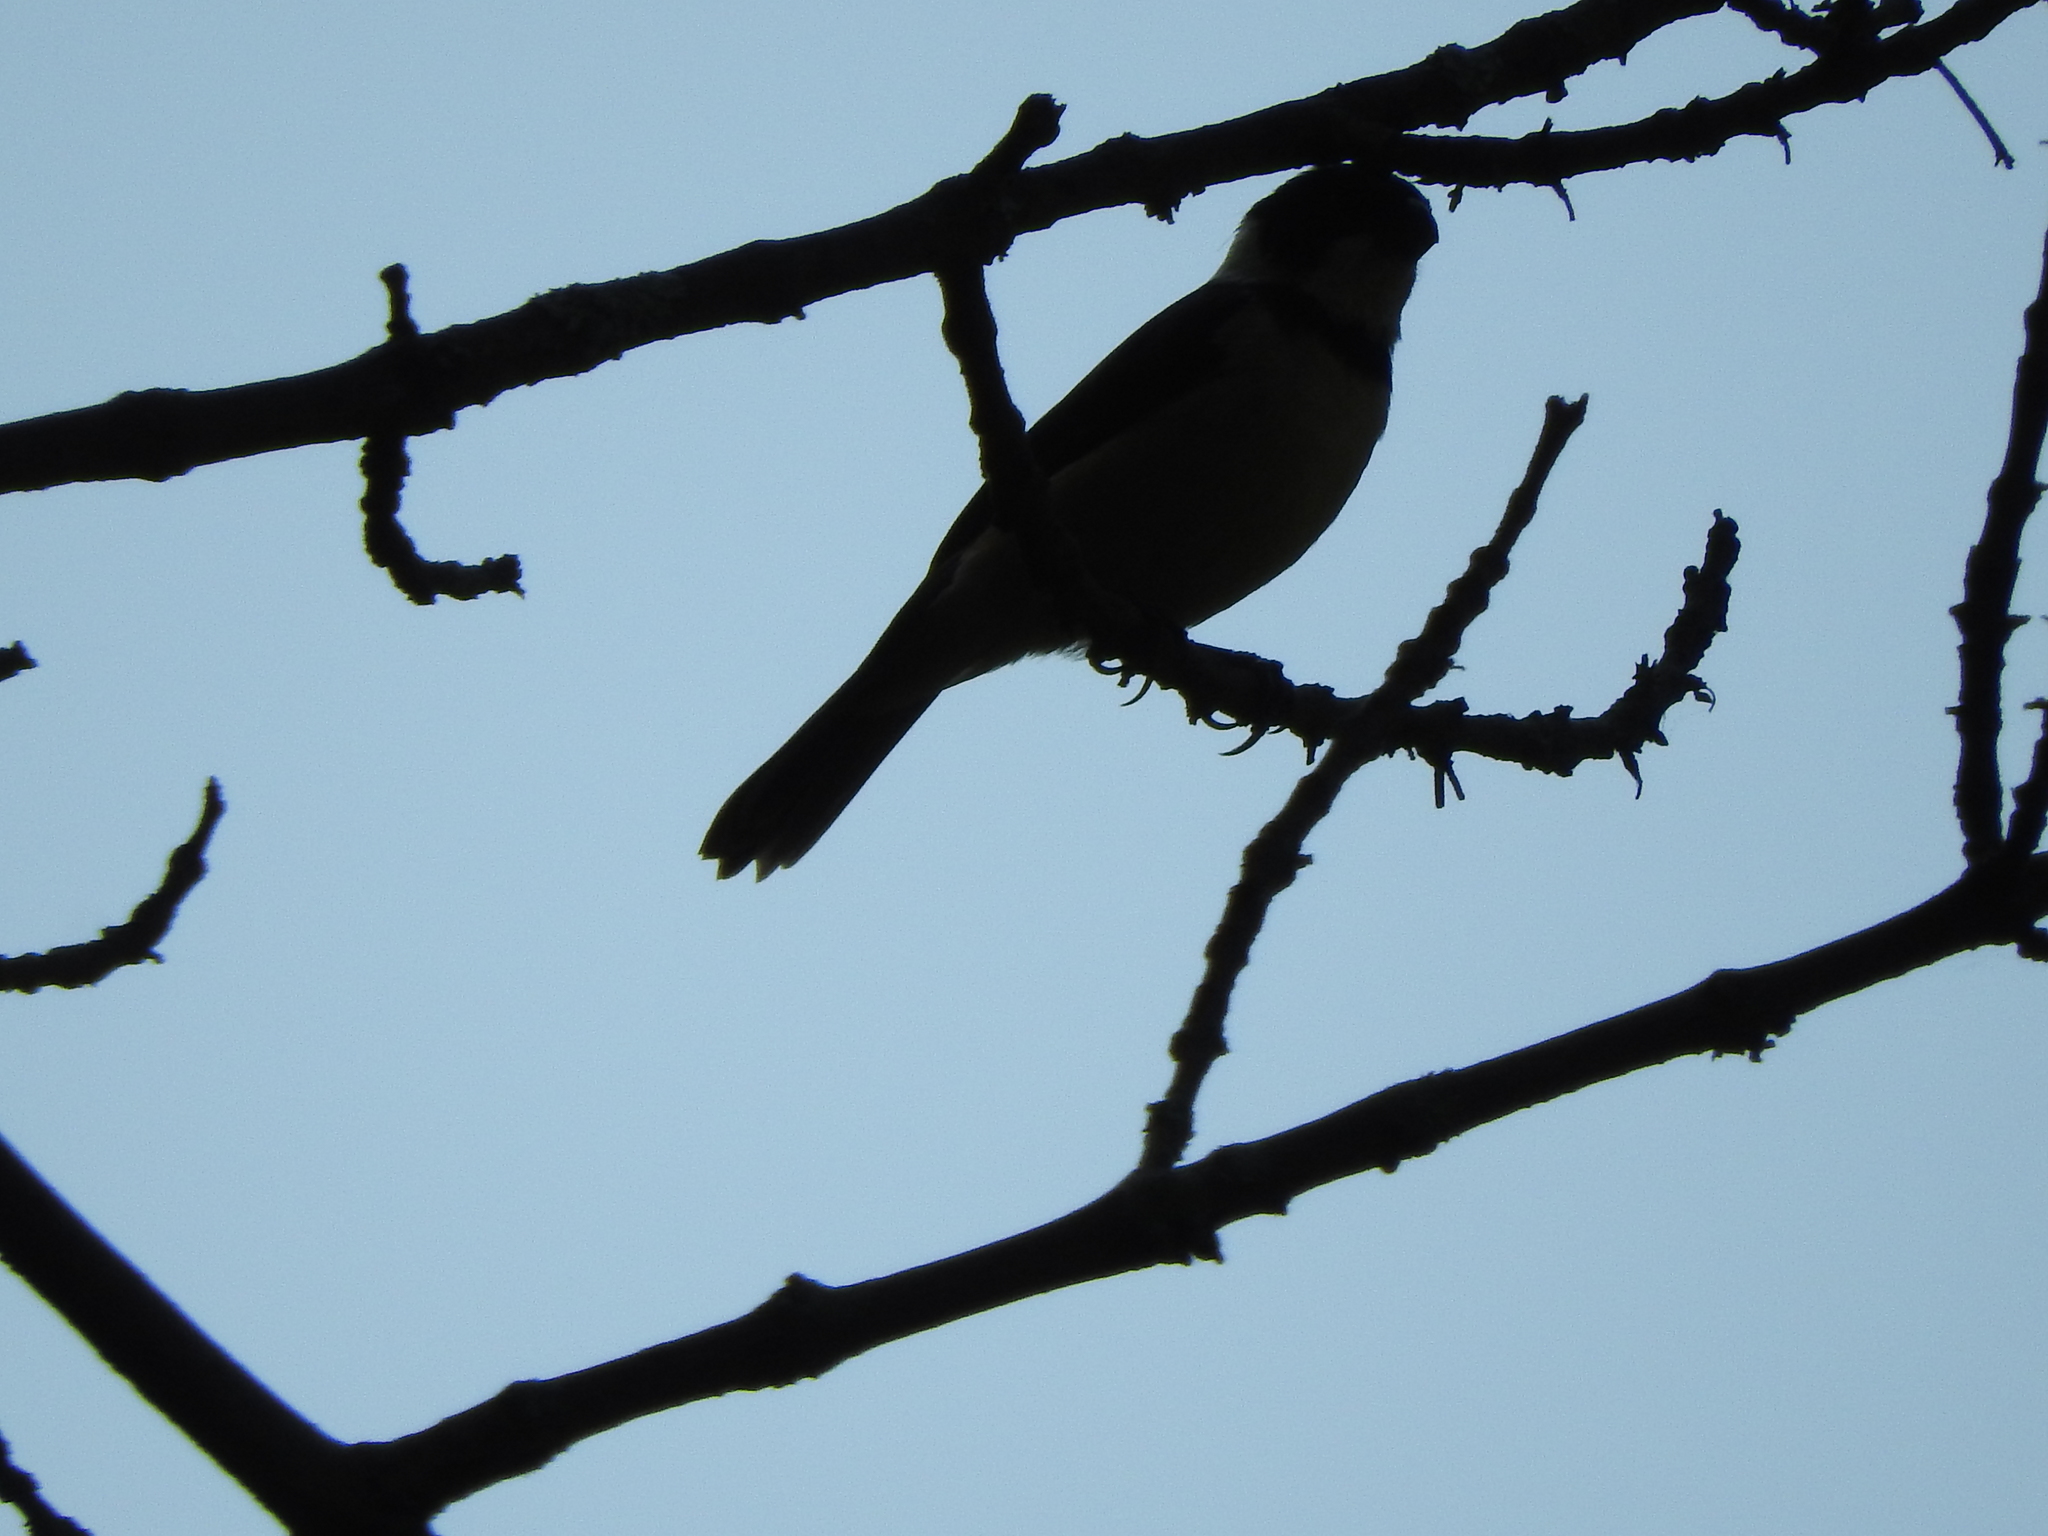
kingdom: Animalia
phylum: Chordata
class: Aves
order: Passeriformes
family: Thraupidae
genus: Sporophila
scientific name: Sporophila torqueola
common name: White-collared seedeater
